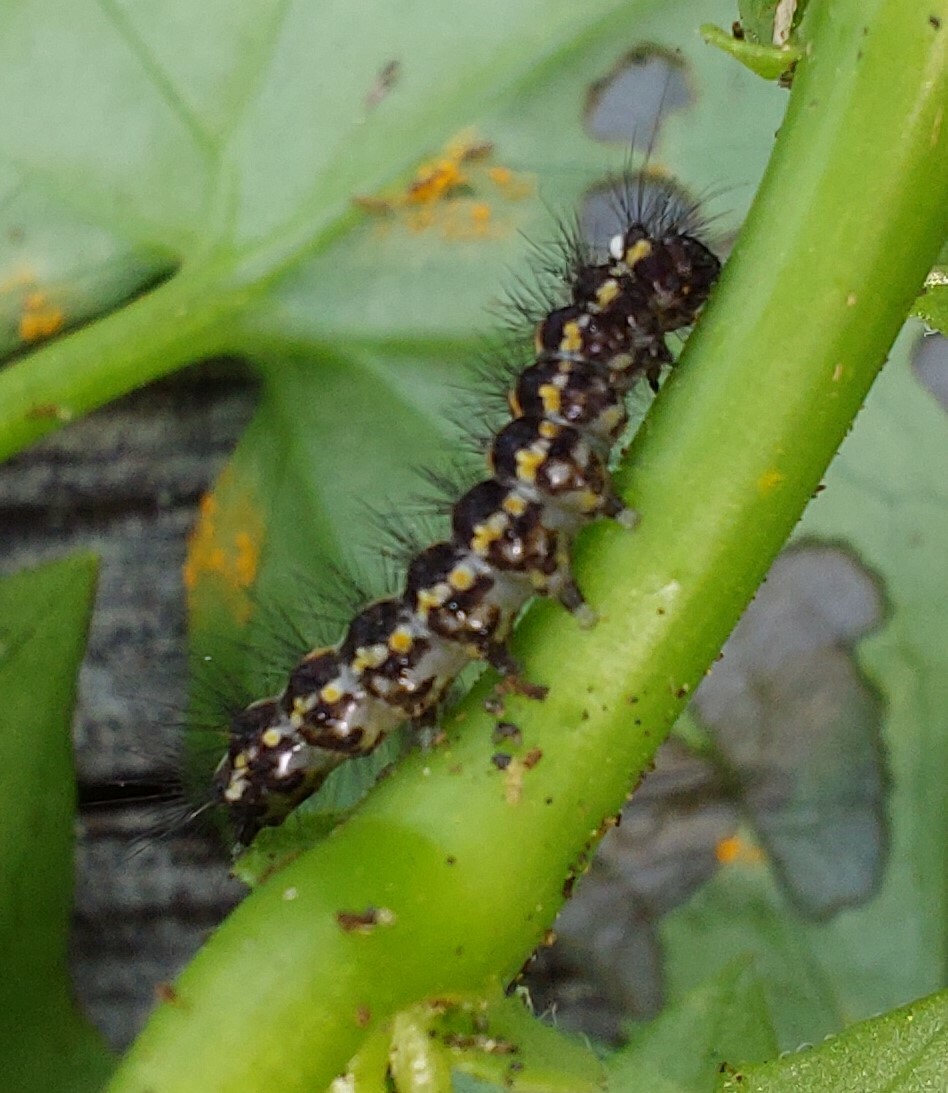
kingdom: Animalia
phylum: Arthropoda
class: Insecta
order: Lepidoptera
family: Erebidae
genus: Nyctemera
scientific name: Nyctemera annulatum
